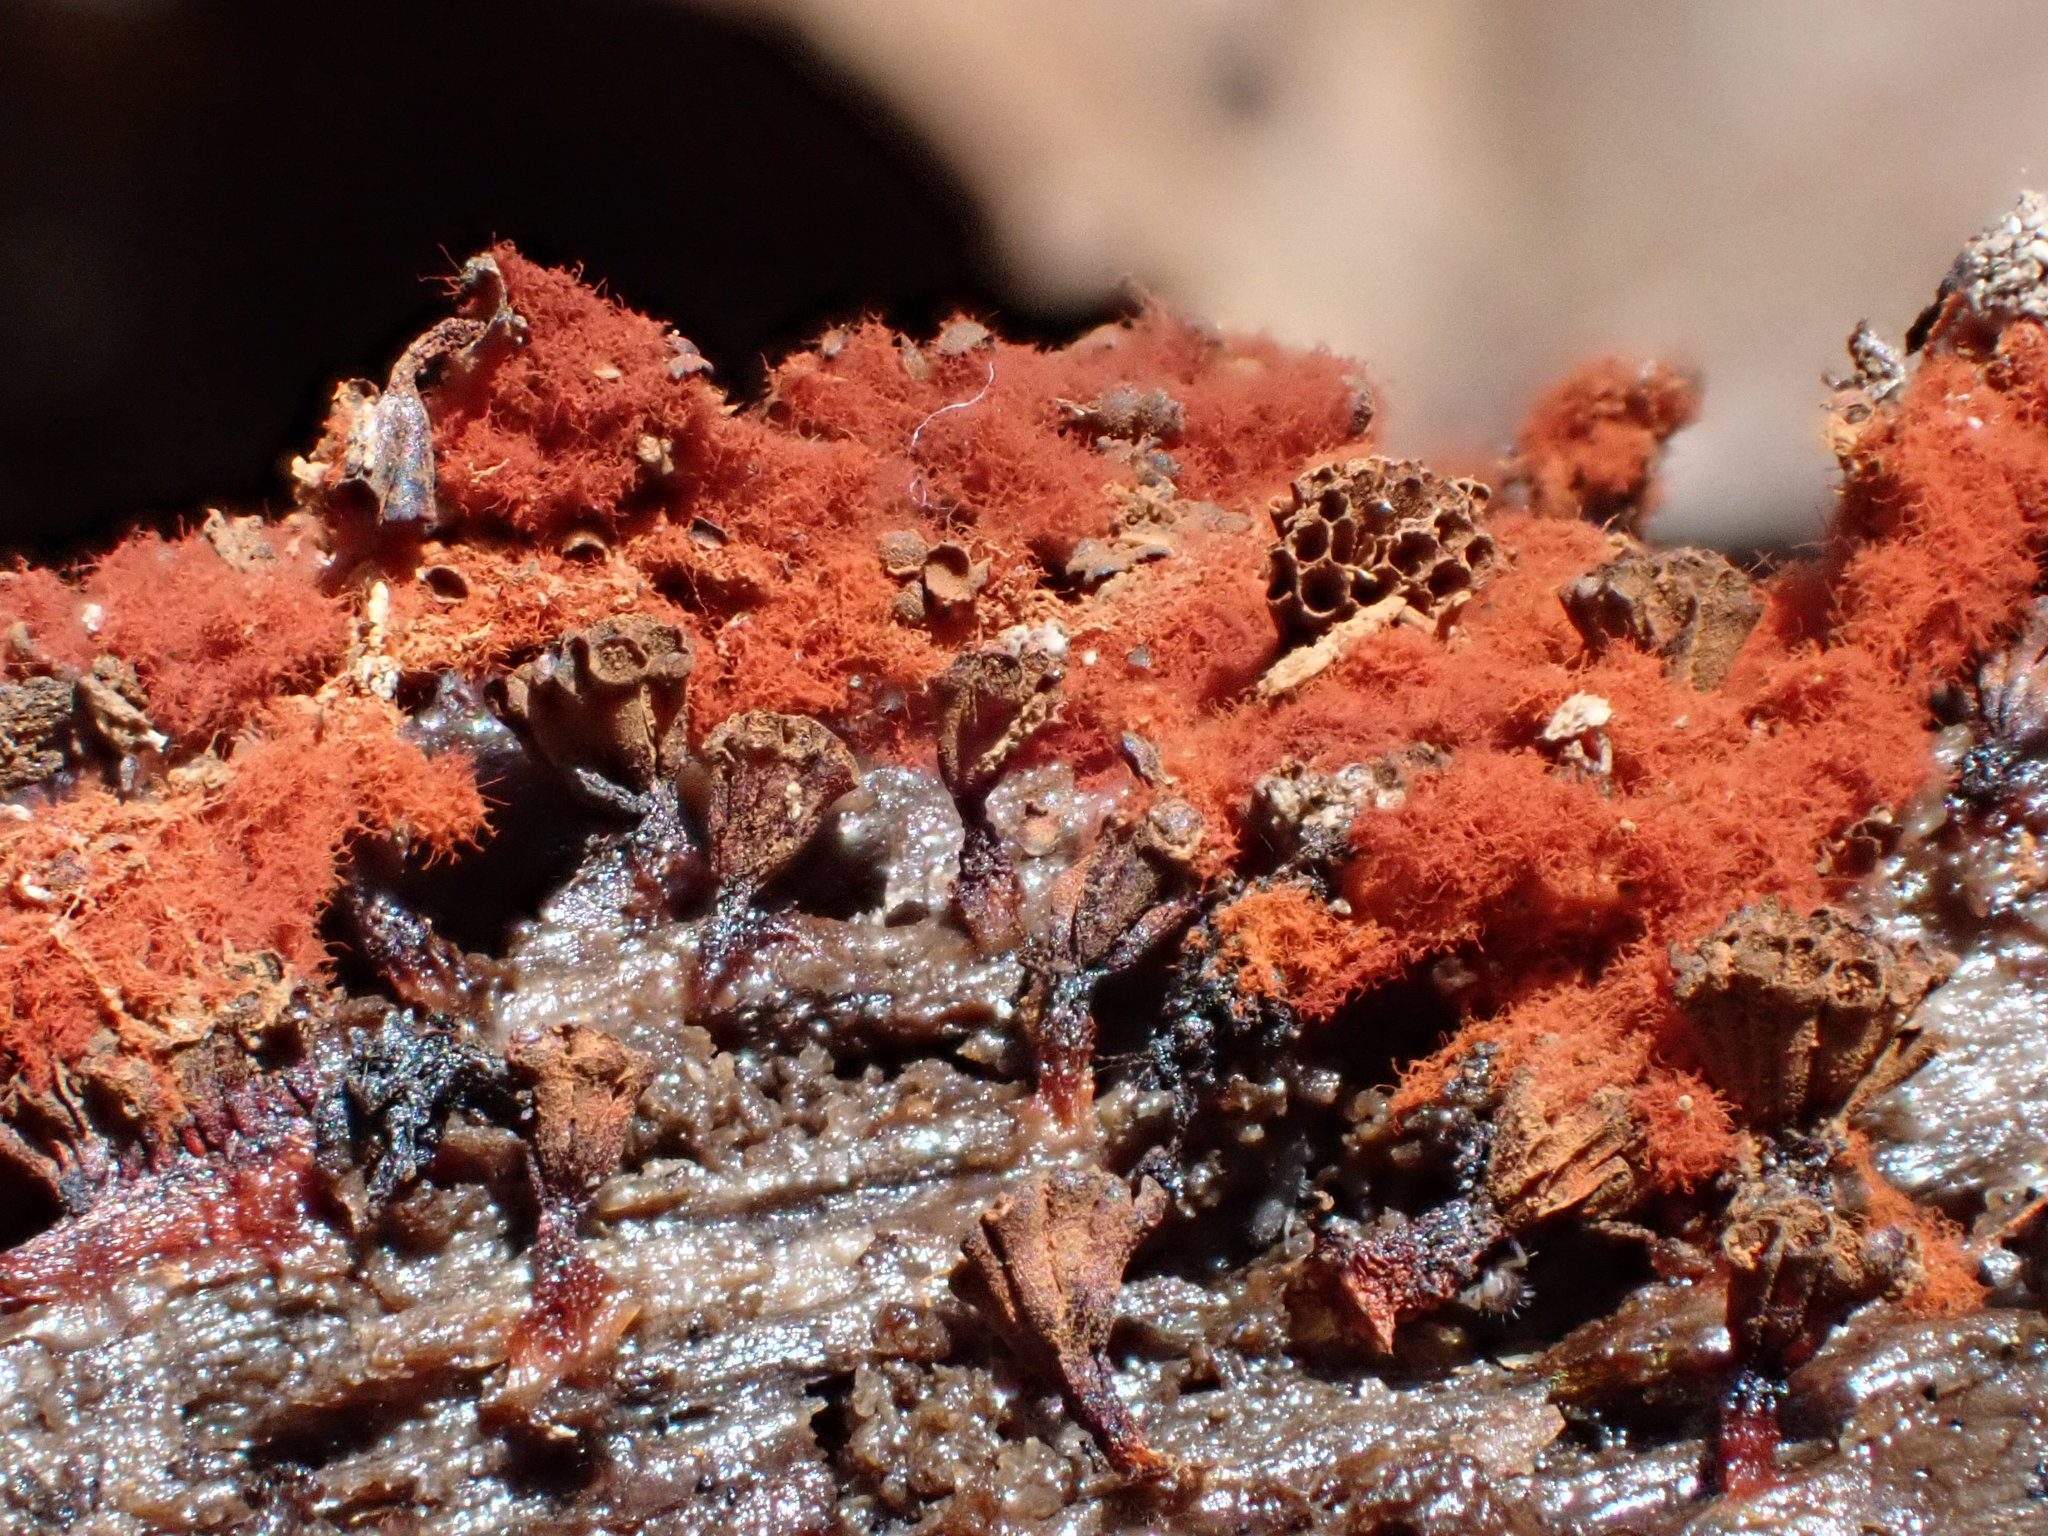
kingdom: Protozoa
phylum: Mycetozoa
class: Myxomycetes
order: Trichiales
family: Trichiaceae
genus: Metatrichia
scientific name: Metatrichia vesparia
